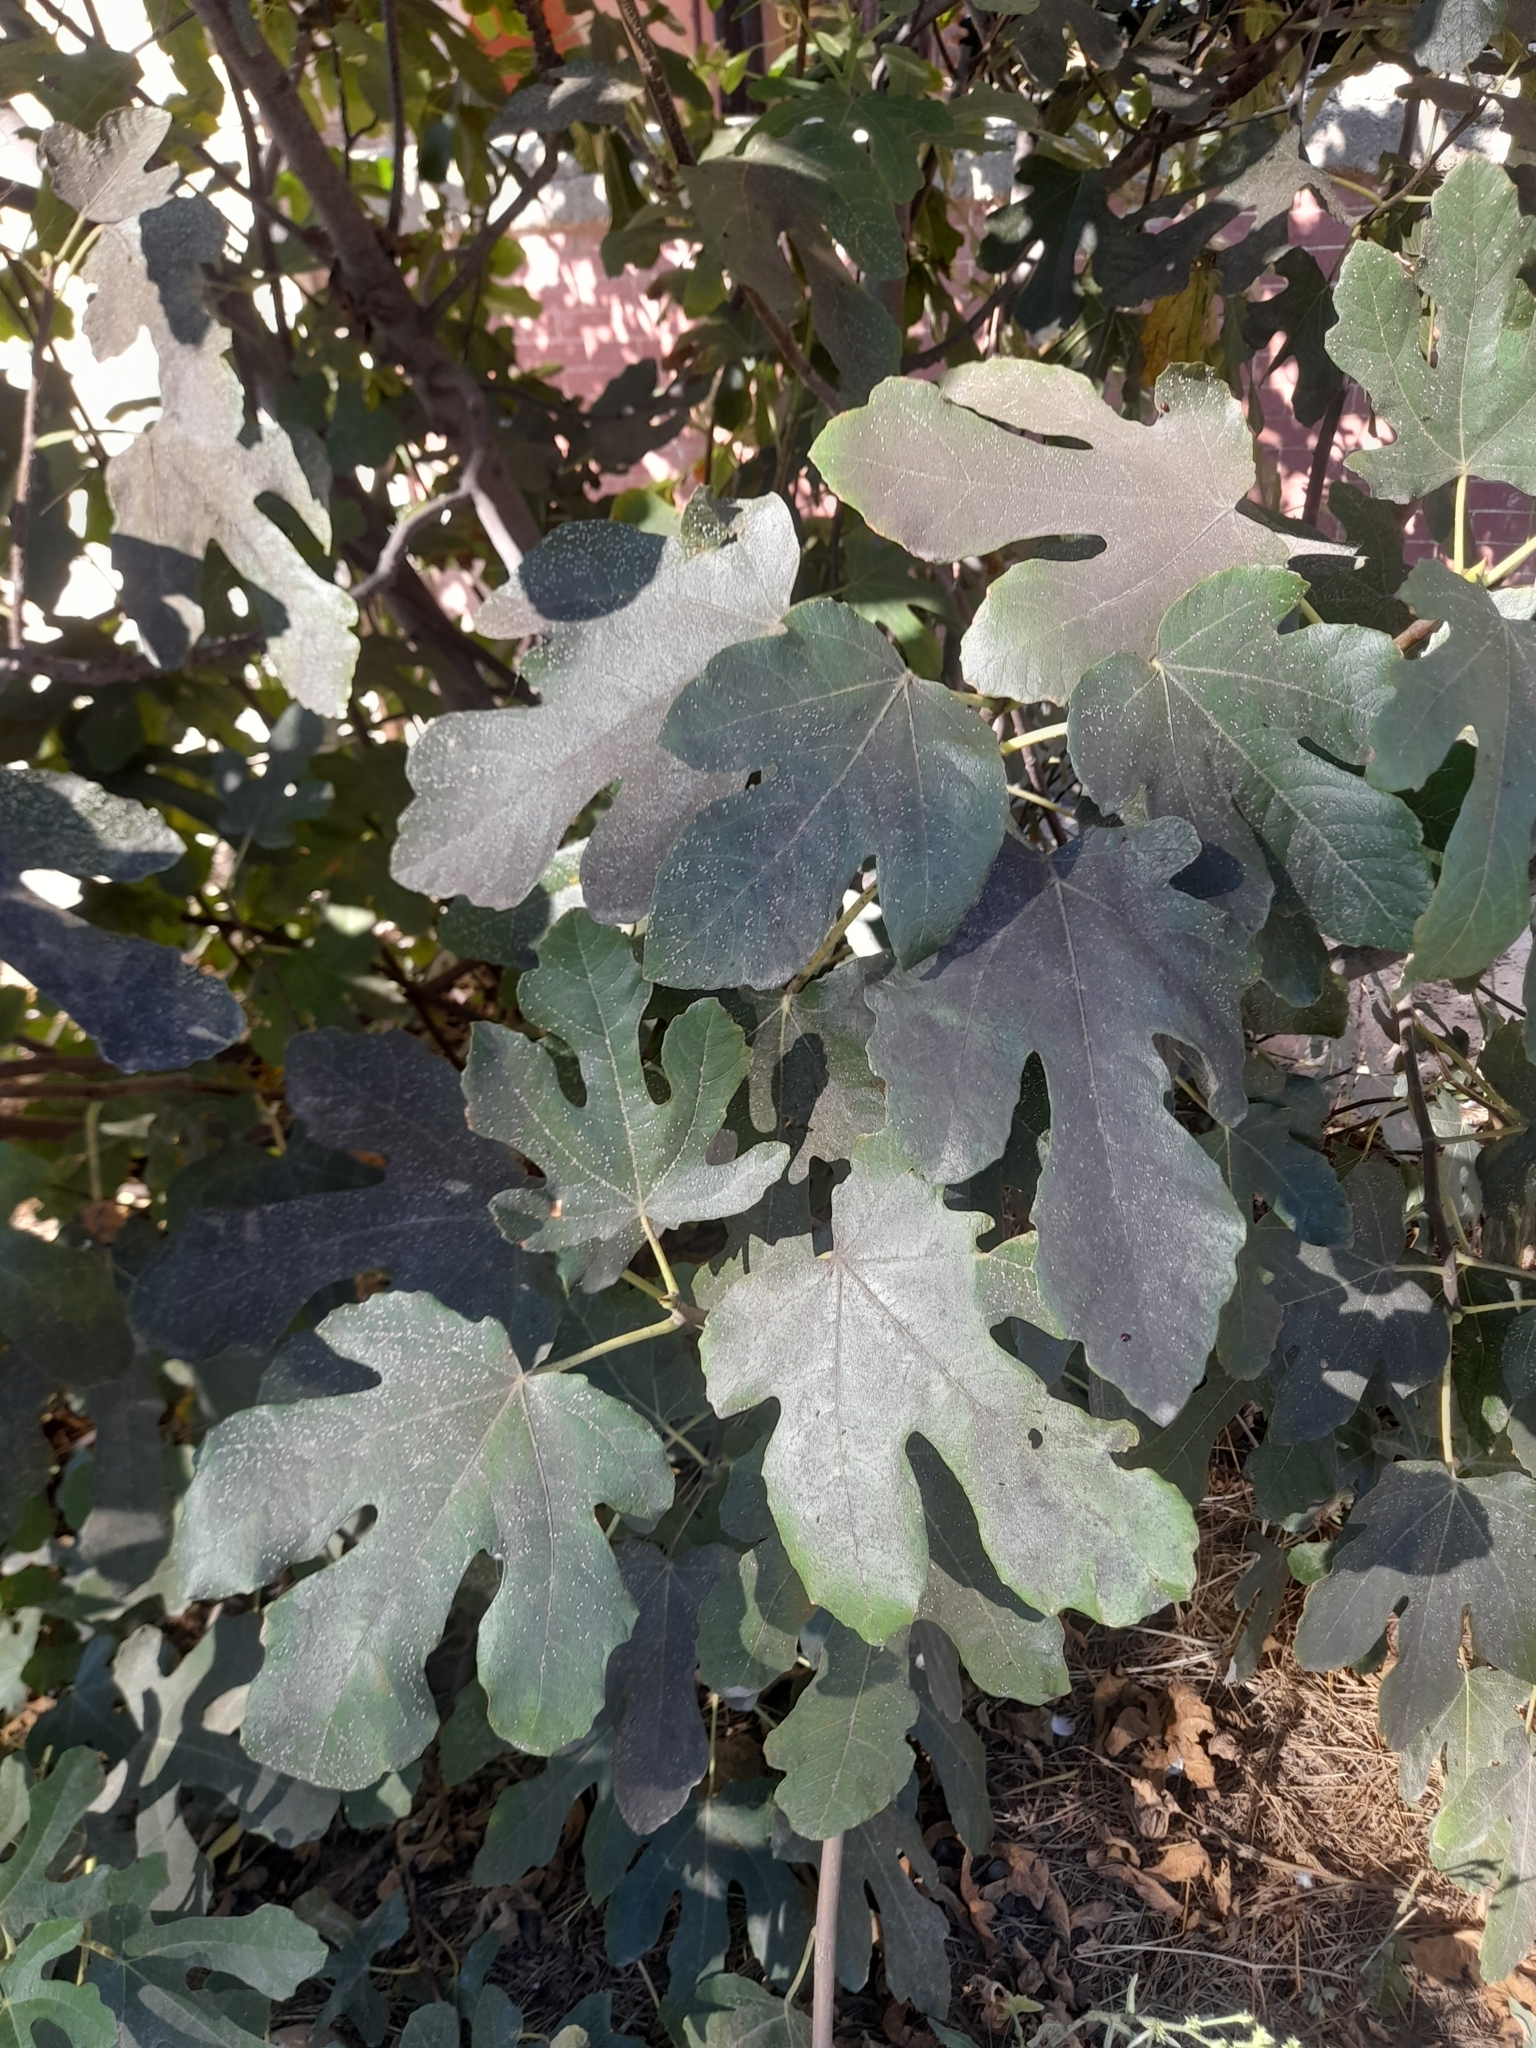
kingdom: Plantae
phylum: Tracheophyta
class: Magnoliopsida
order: Rosales
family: Moraceae
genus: Ficus
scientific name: Ficus carica
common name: Fig
